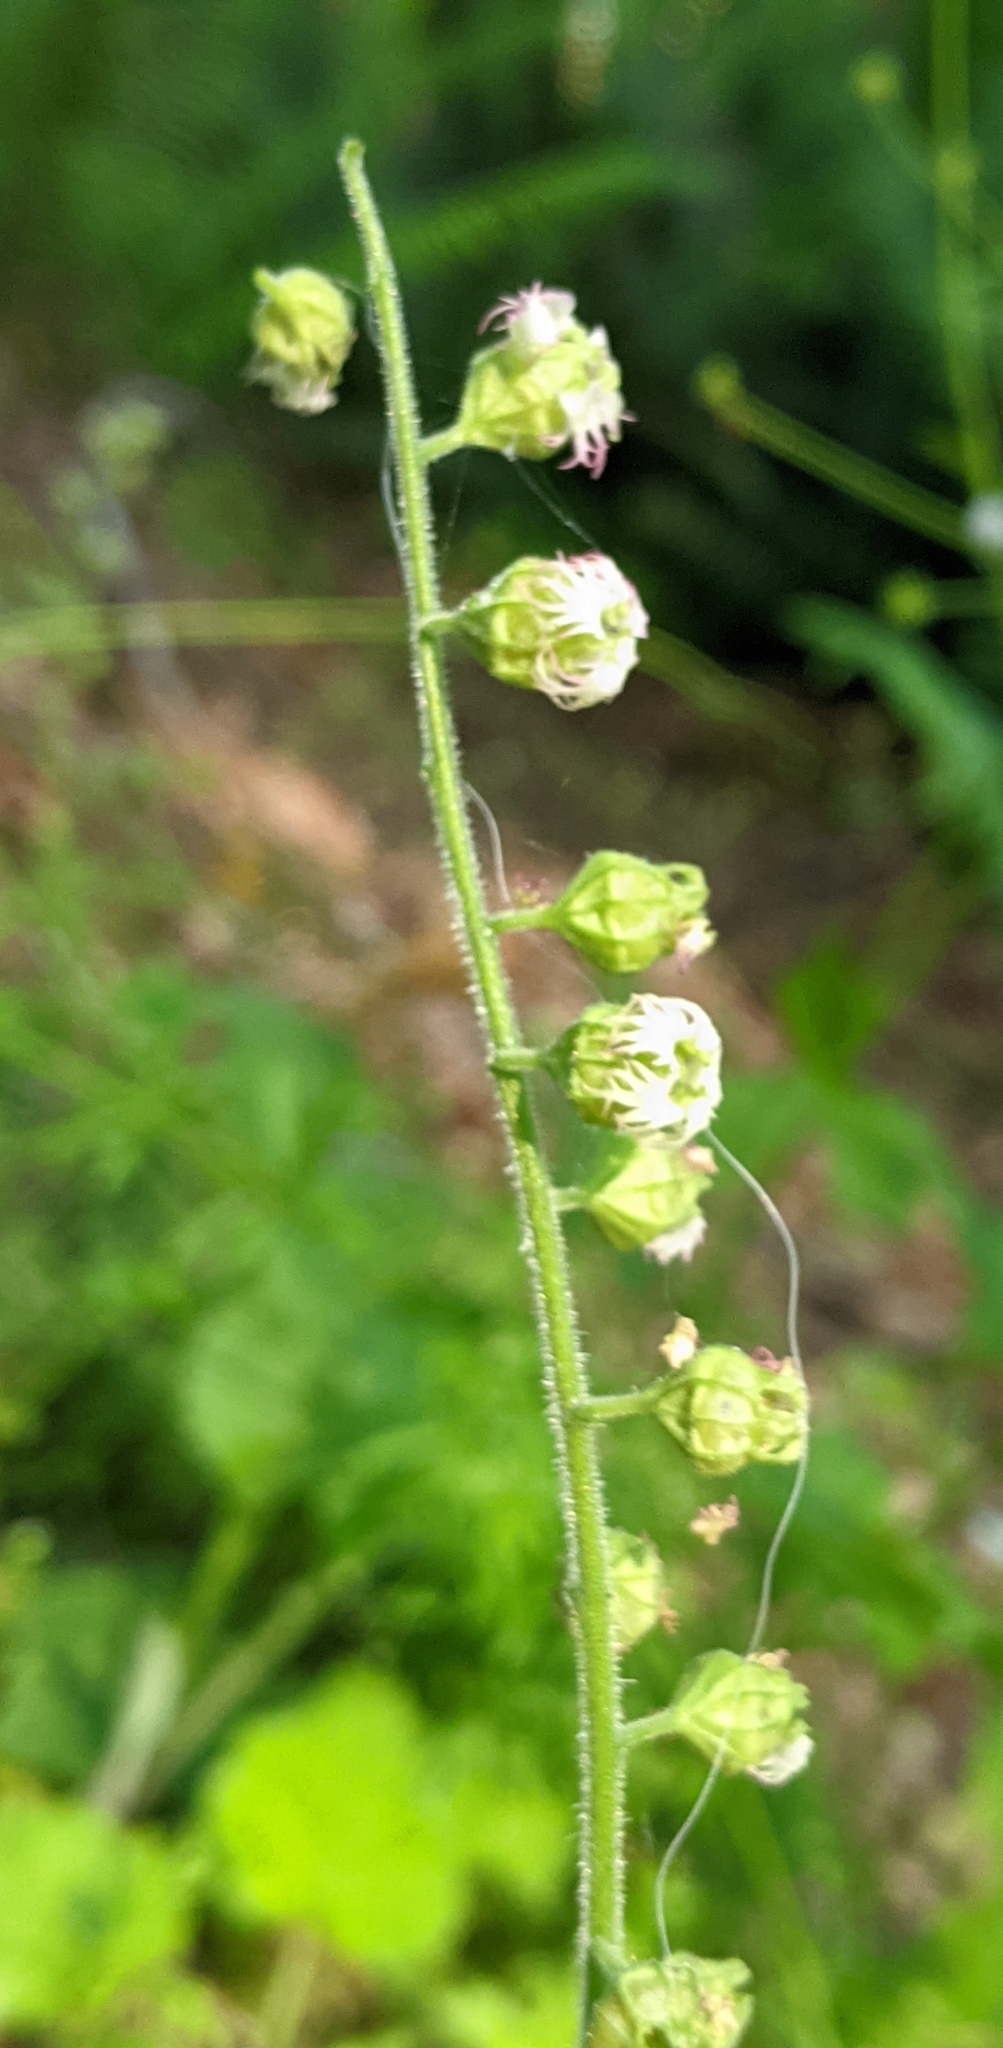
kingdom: Plantae
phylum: Tracheophyta
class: Magnoliopsida
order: Saxifragales
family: Saxifragaceae
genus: Tellima
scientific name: Tellima grandiflora
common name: Fringecups
